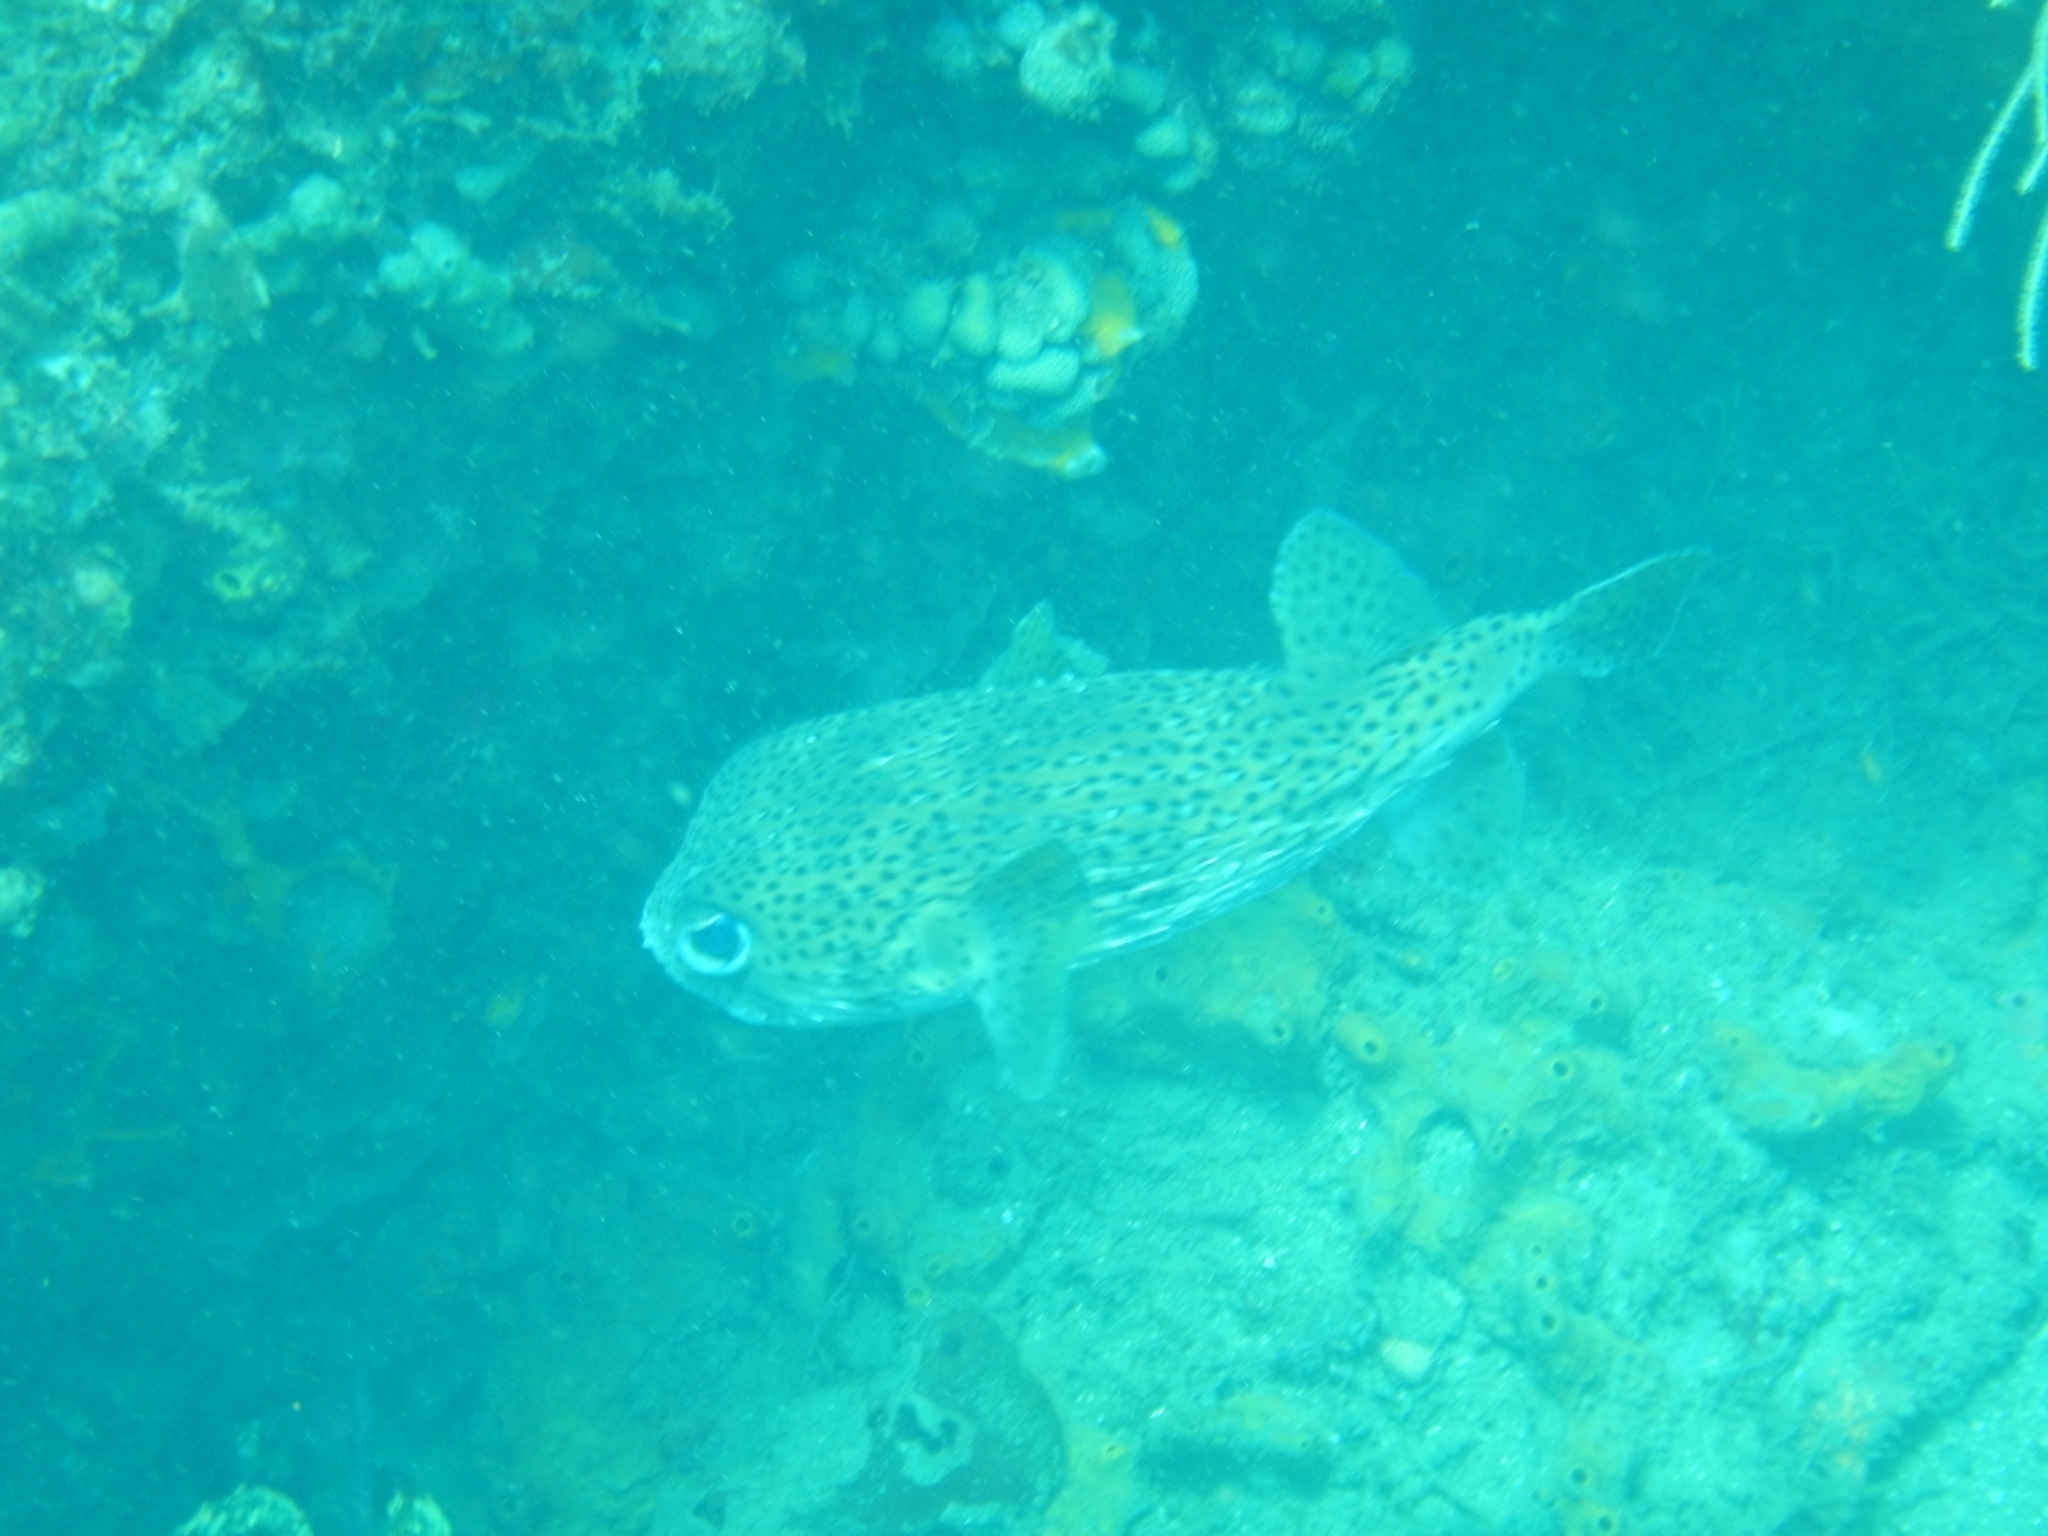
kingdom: Animalia
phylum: Chordata
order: Tetraodontiformes
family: Diodontidae
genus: Diodon
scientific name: Diodon hystrix
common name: Giant porcupinefish
